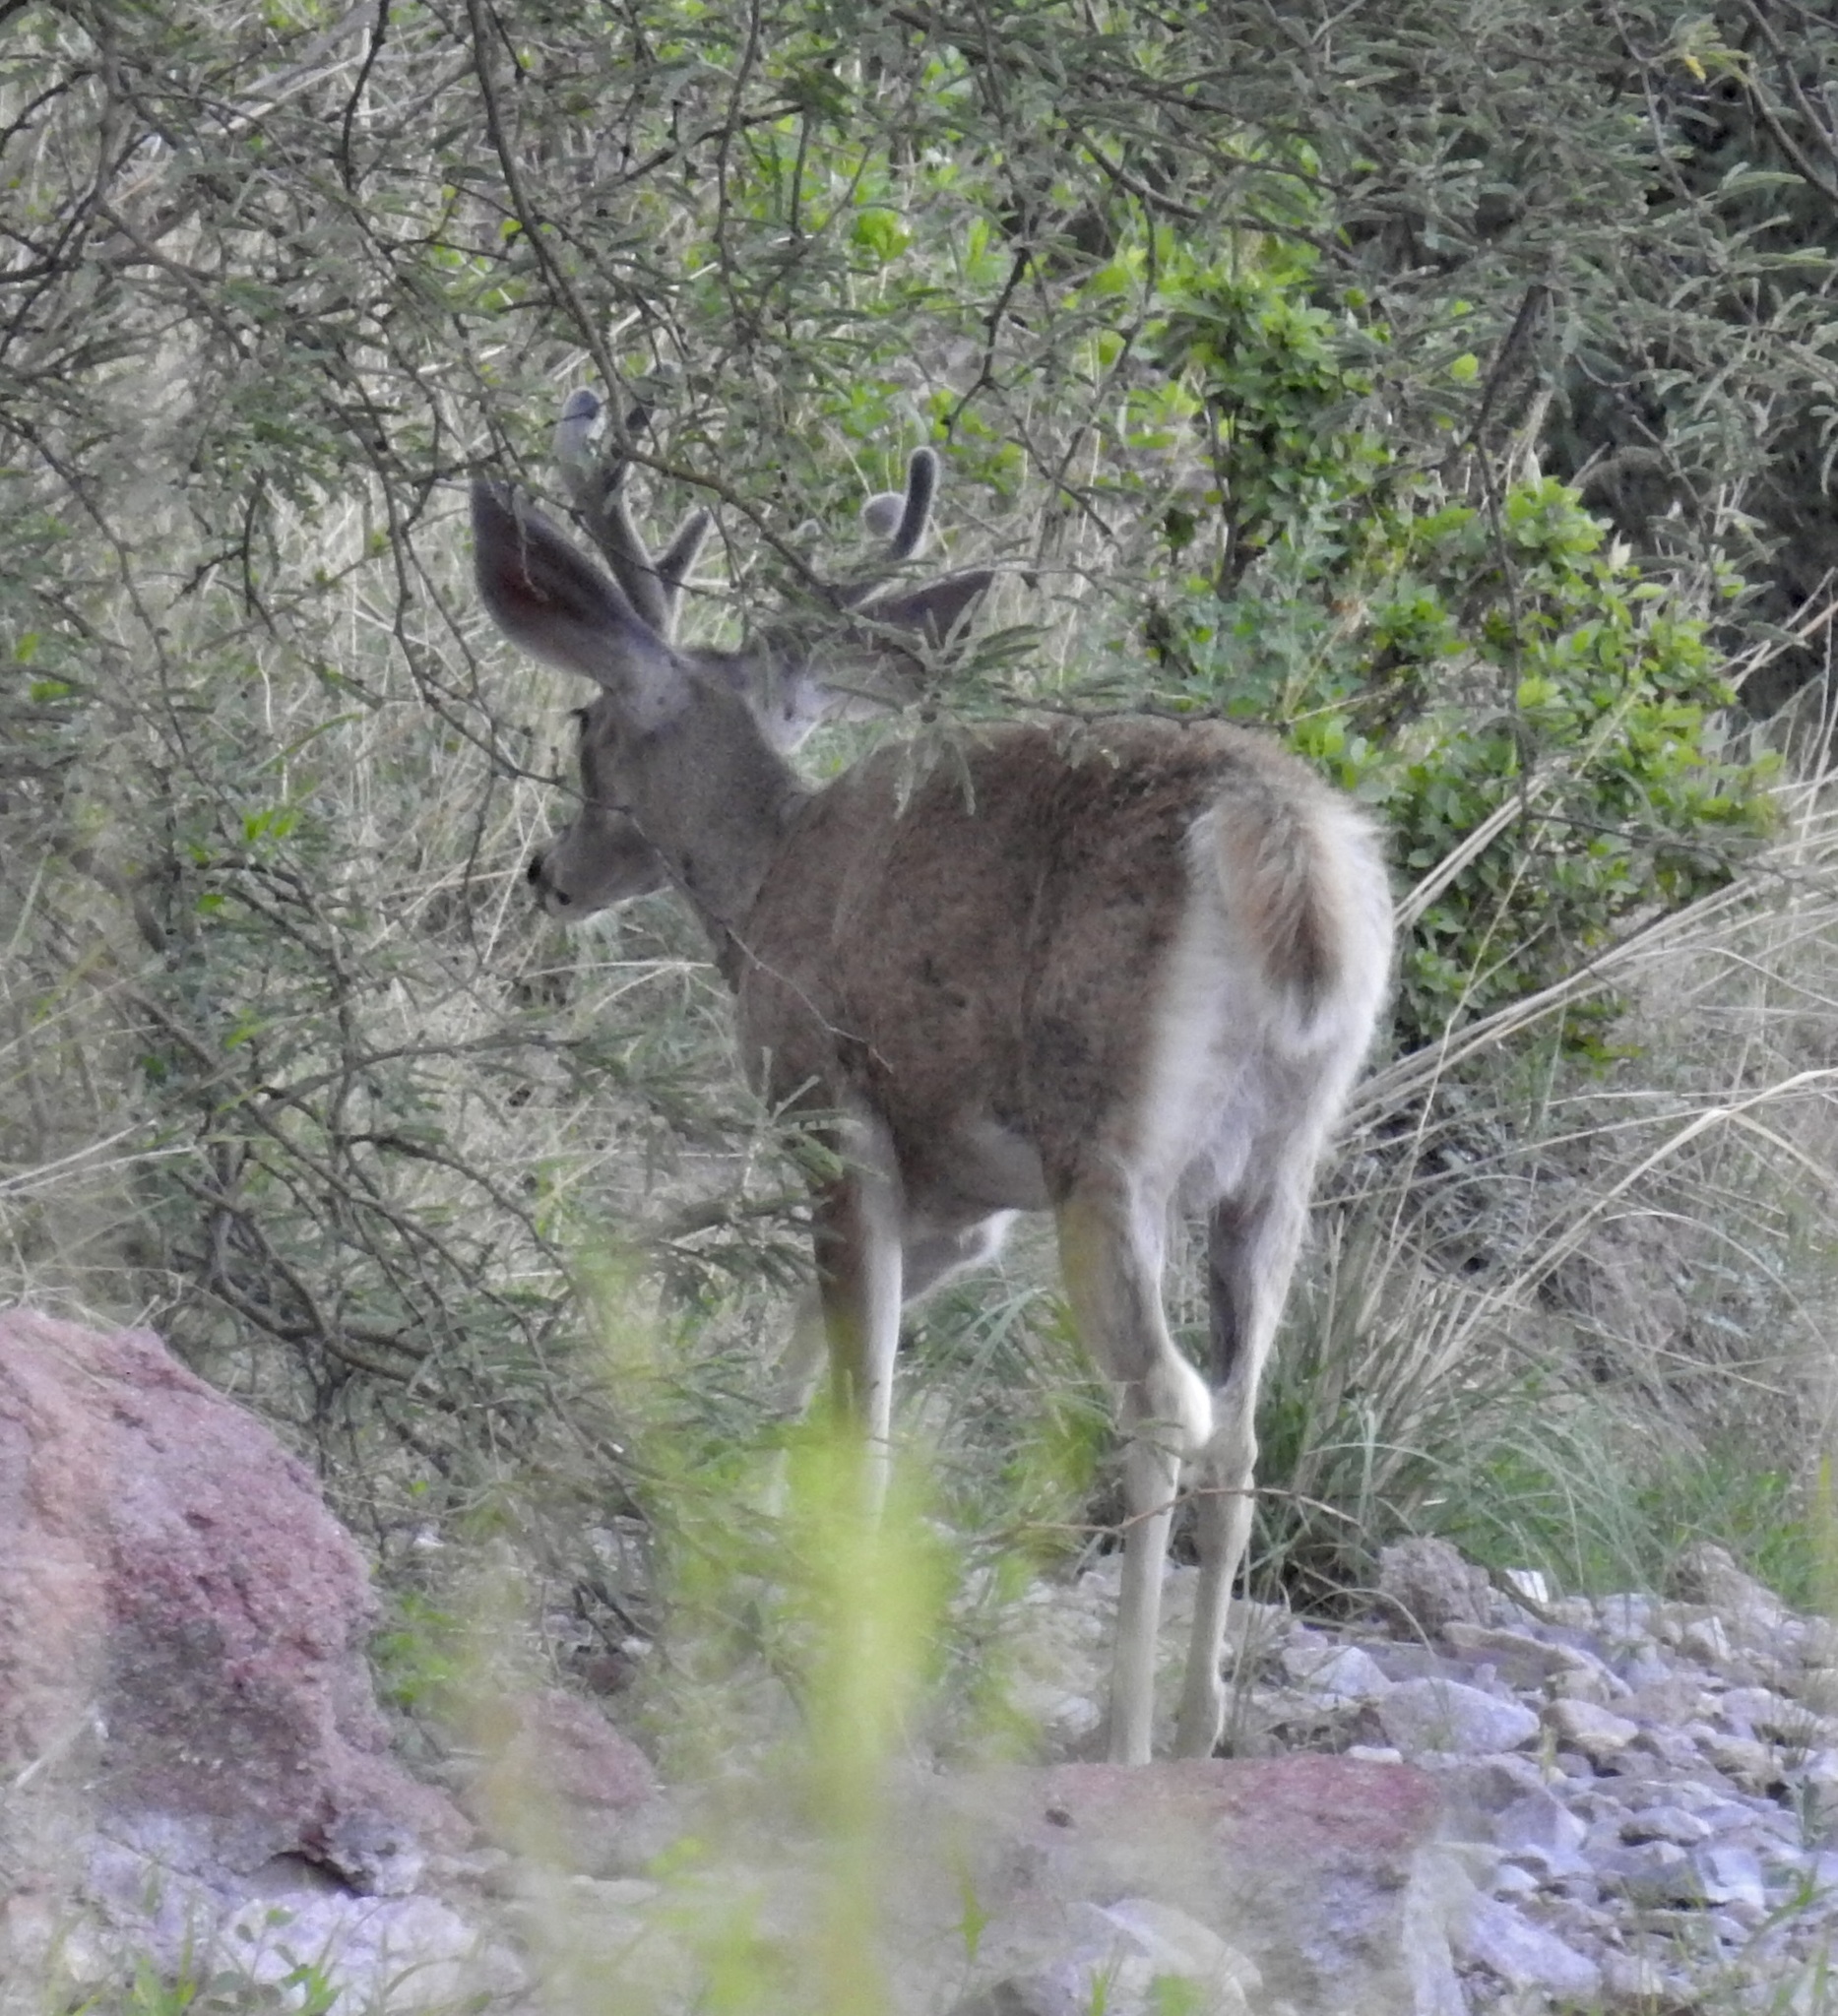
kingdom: Animalia
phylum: Chordata
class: Mammalia
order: Artiodactyla
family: Cervidae
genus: Odocoileus
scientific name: Odocoileus virginianus
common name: White-tailed deer
